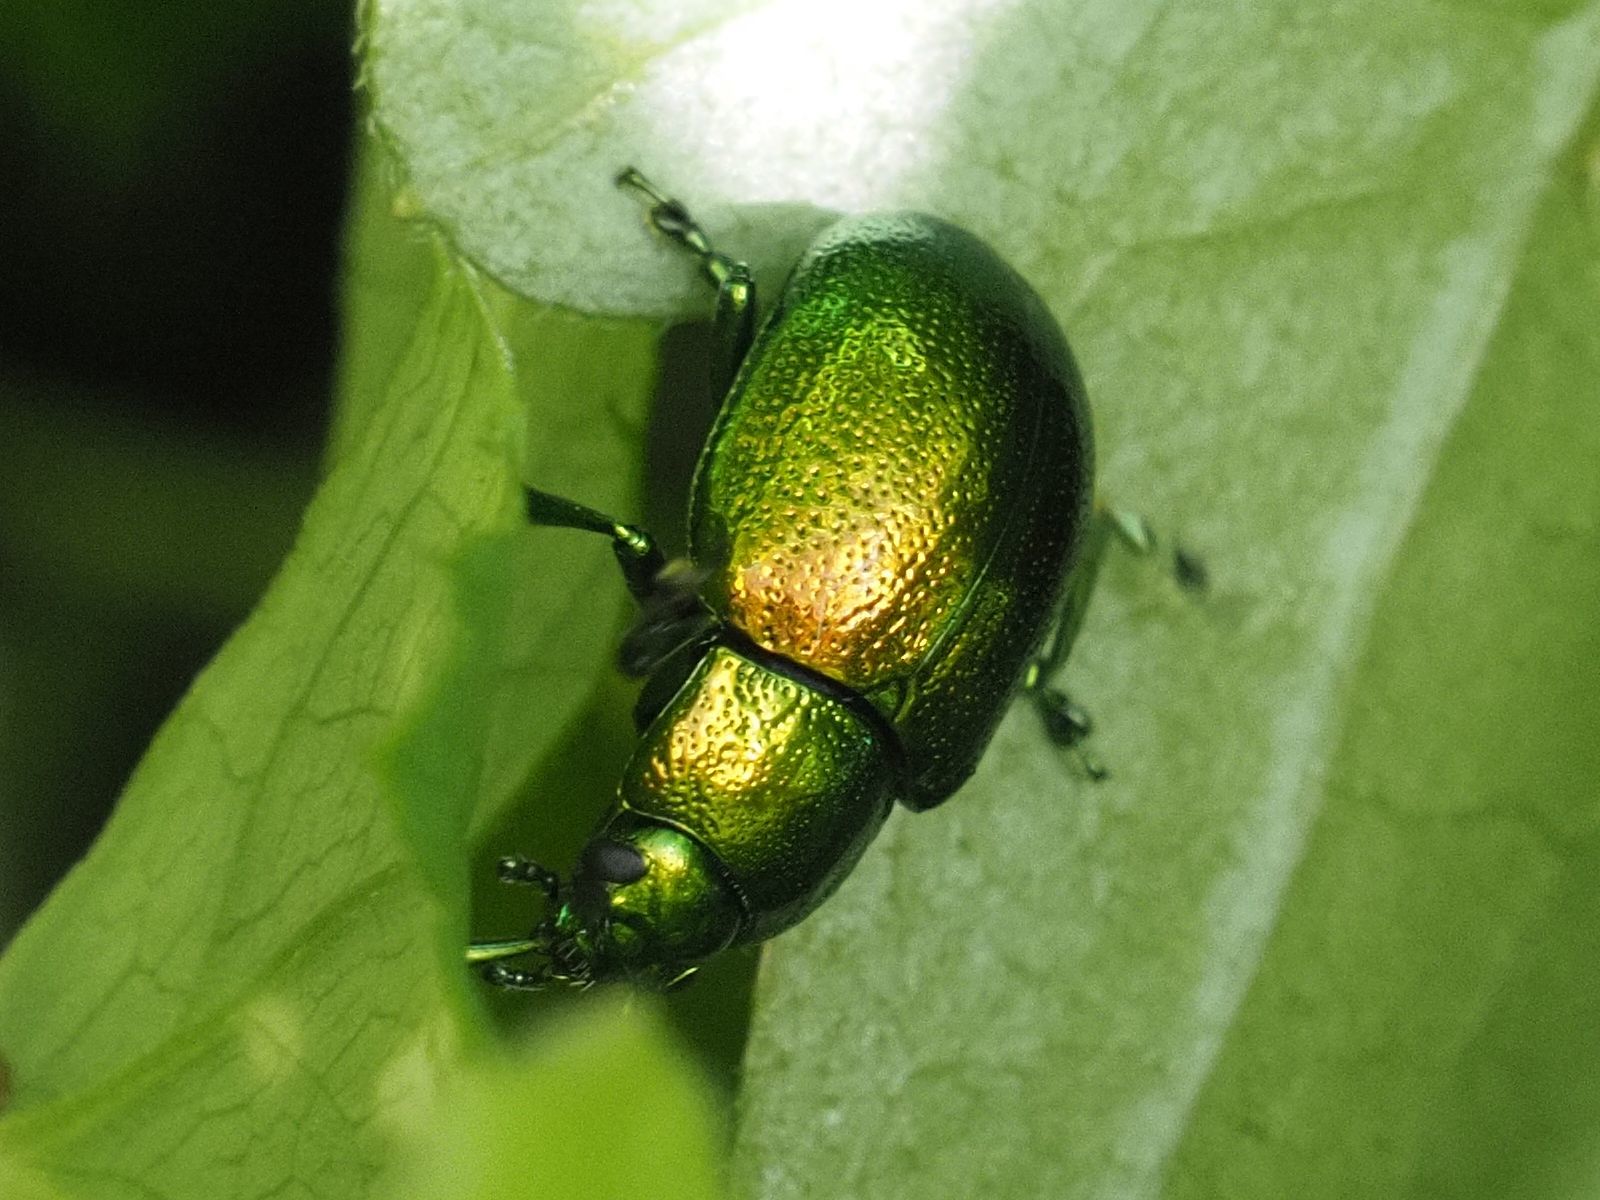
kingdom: Animalia
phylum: Arthropoda
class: Insecta
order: Coleoptera
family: Chrysomelidae
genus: Chrysolina
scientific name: Chrysolina herbacea
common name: Mint leaf beatle
